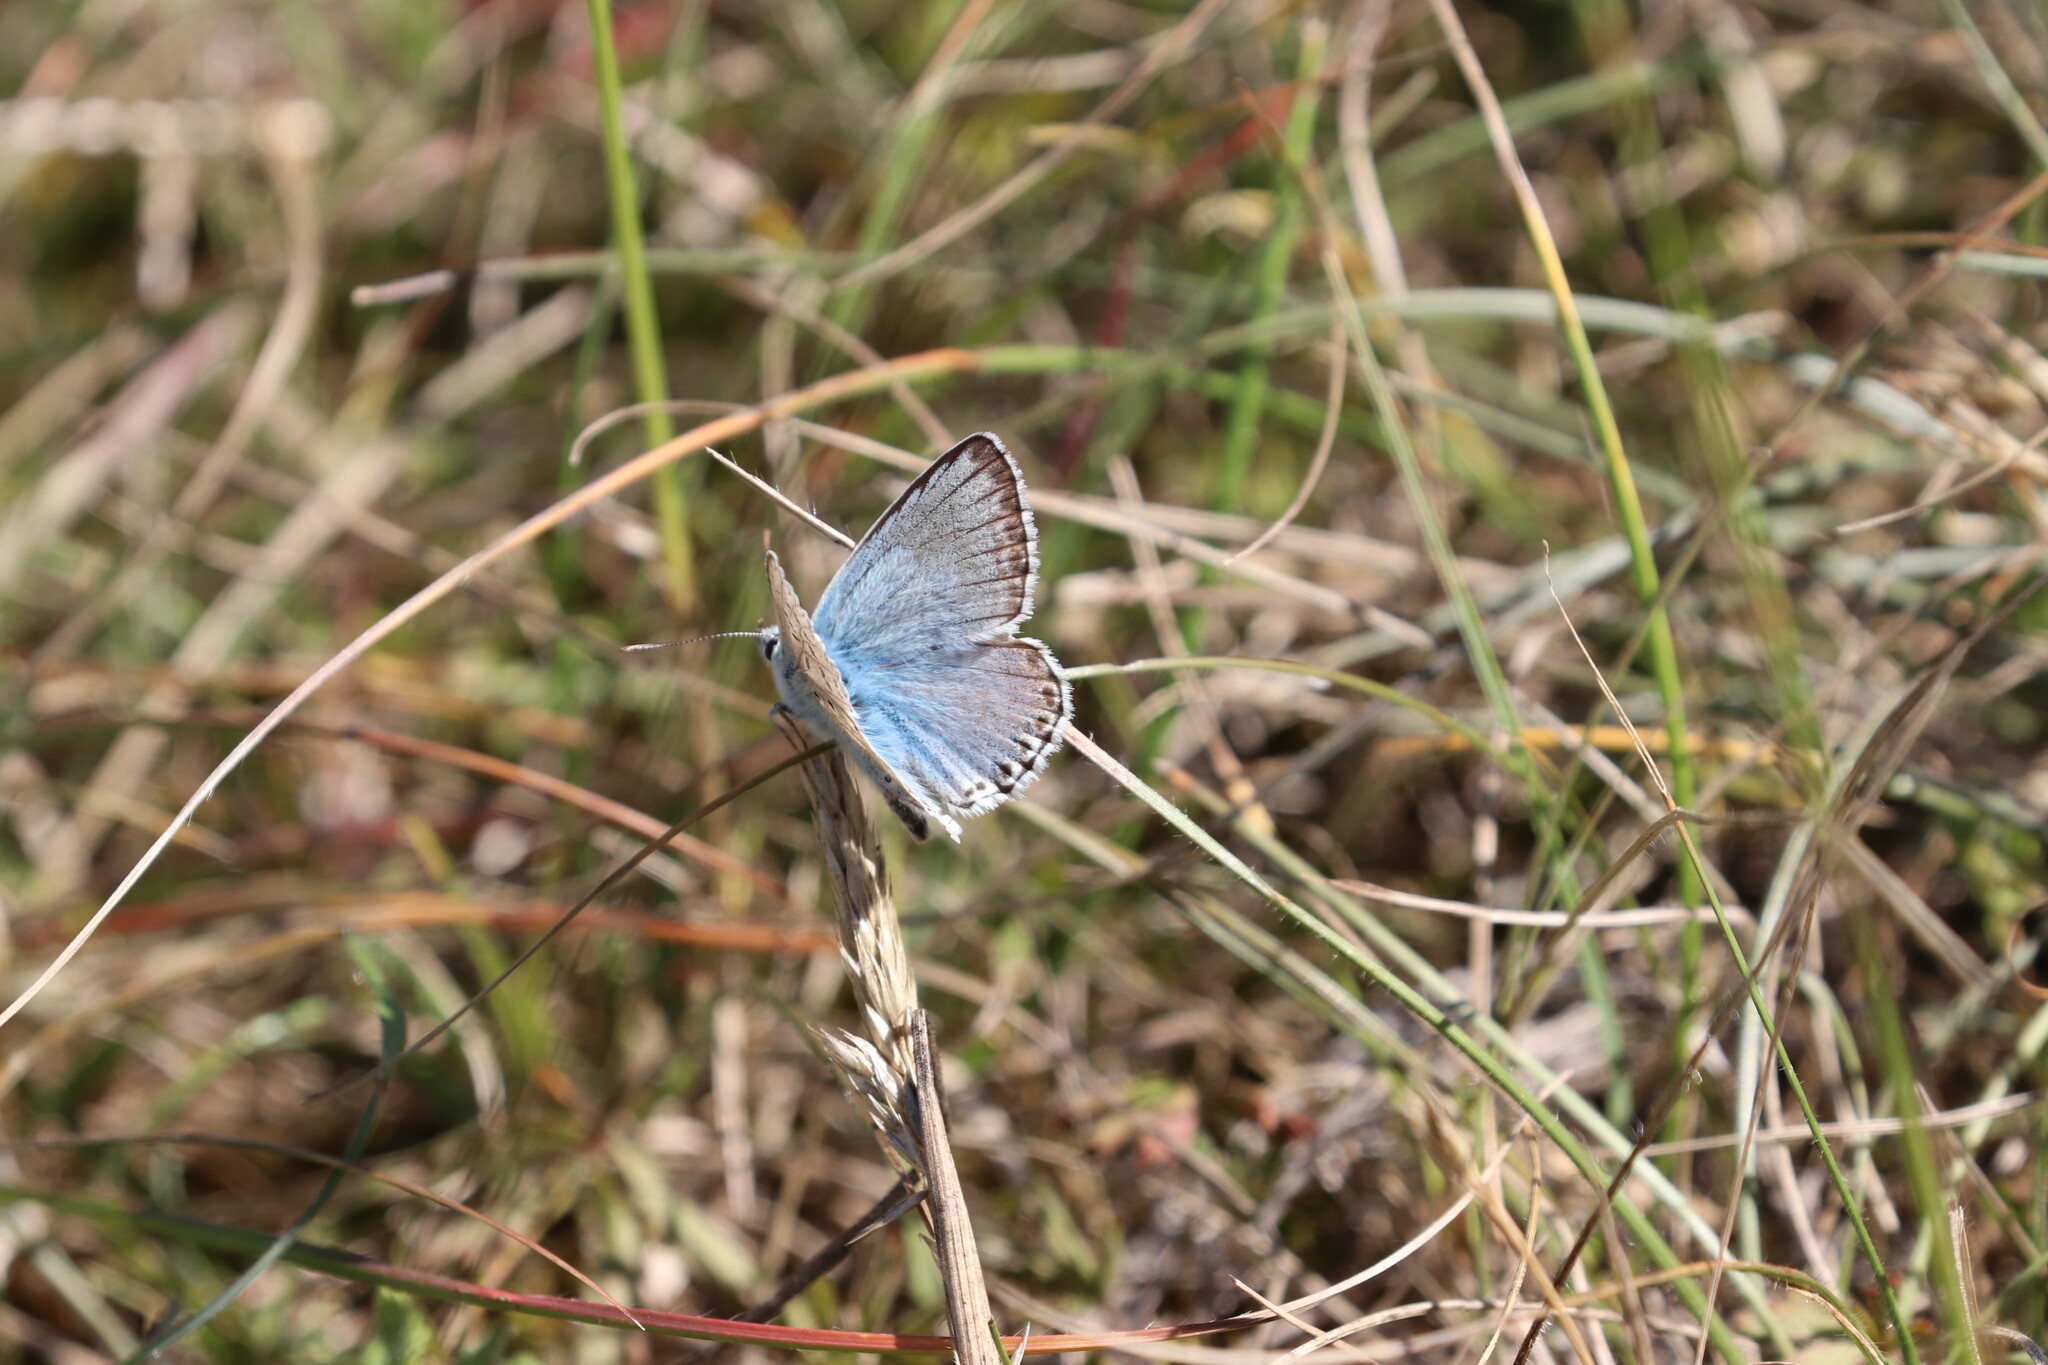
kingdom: Animalia
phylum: Arthropoda
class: Insecta
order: Lepidoptera
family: Lycaenidae
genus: Lysandra
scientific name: Lysandra coridon
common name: Chalkhill blue
